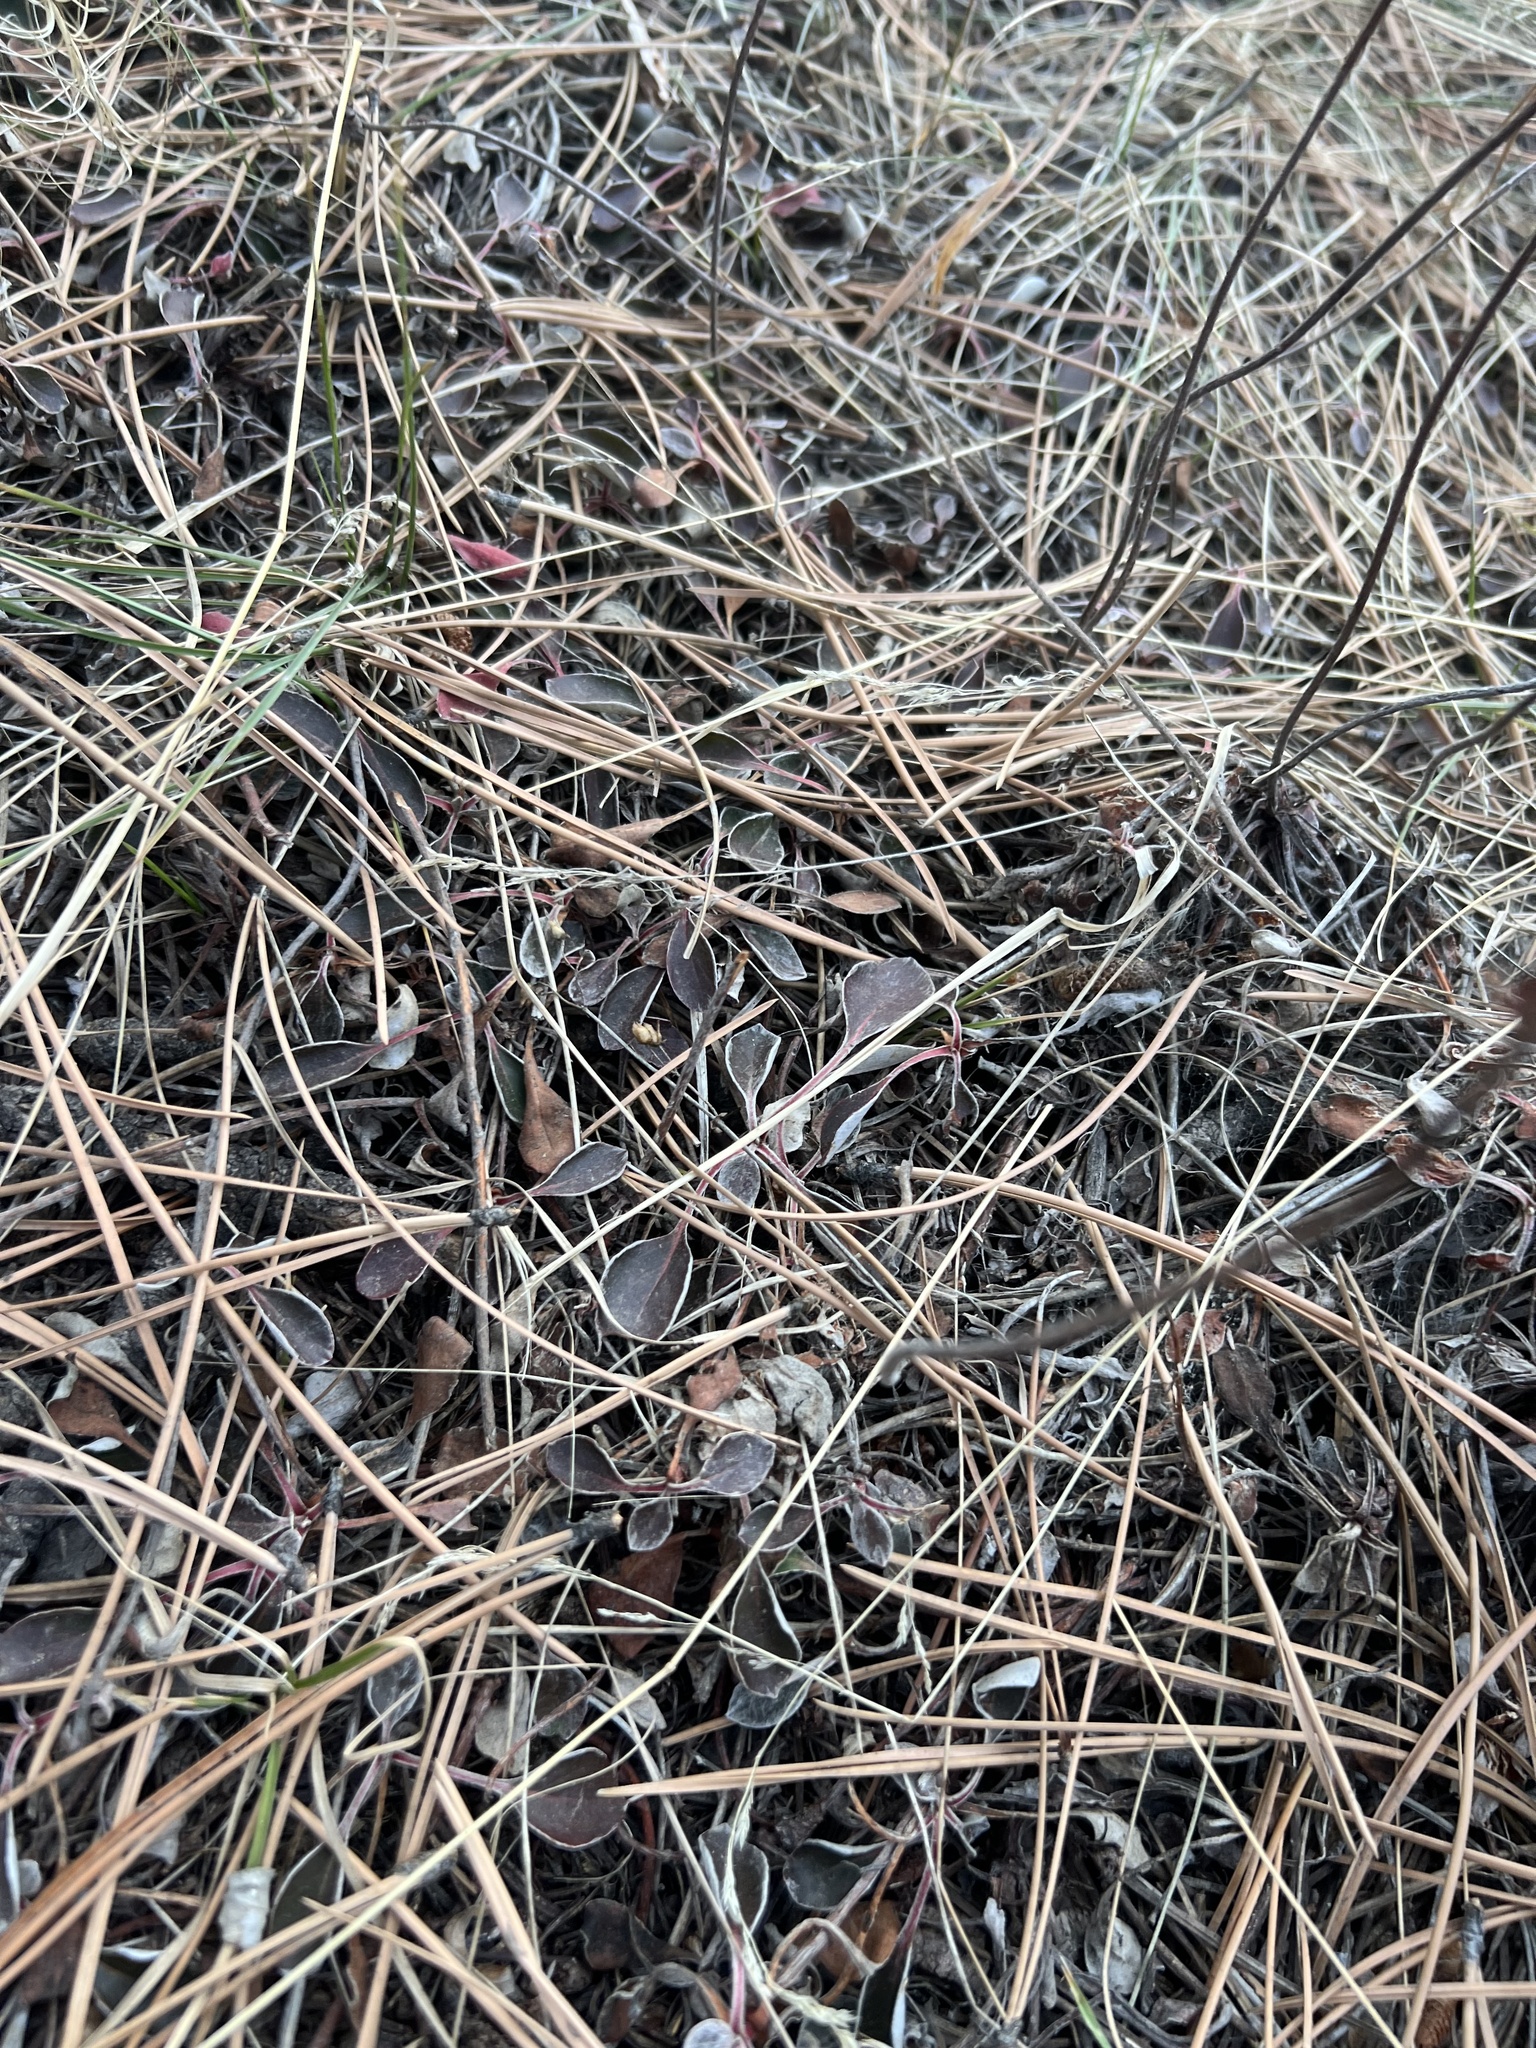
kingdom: Plantae
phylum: Tracheophyta
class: Magnoliopsida
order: Caryophyllales
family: Polygonaceae
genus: Eriogonum
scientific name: Eriogonum umbellatum
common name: Sulfur-buckwheat
